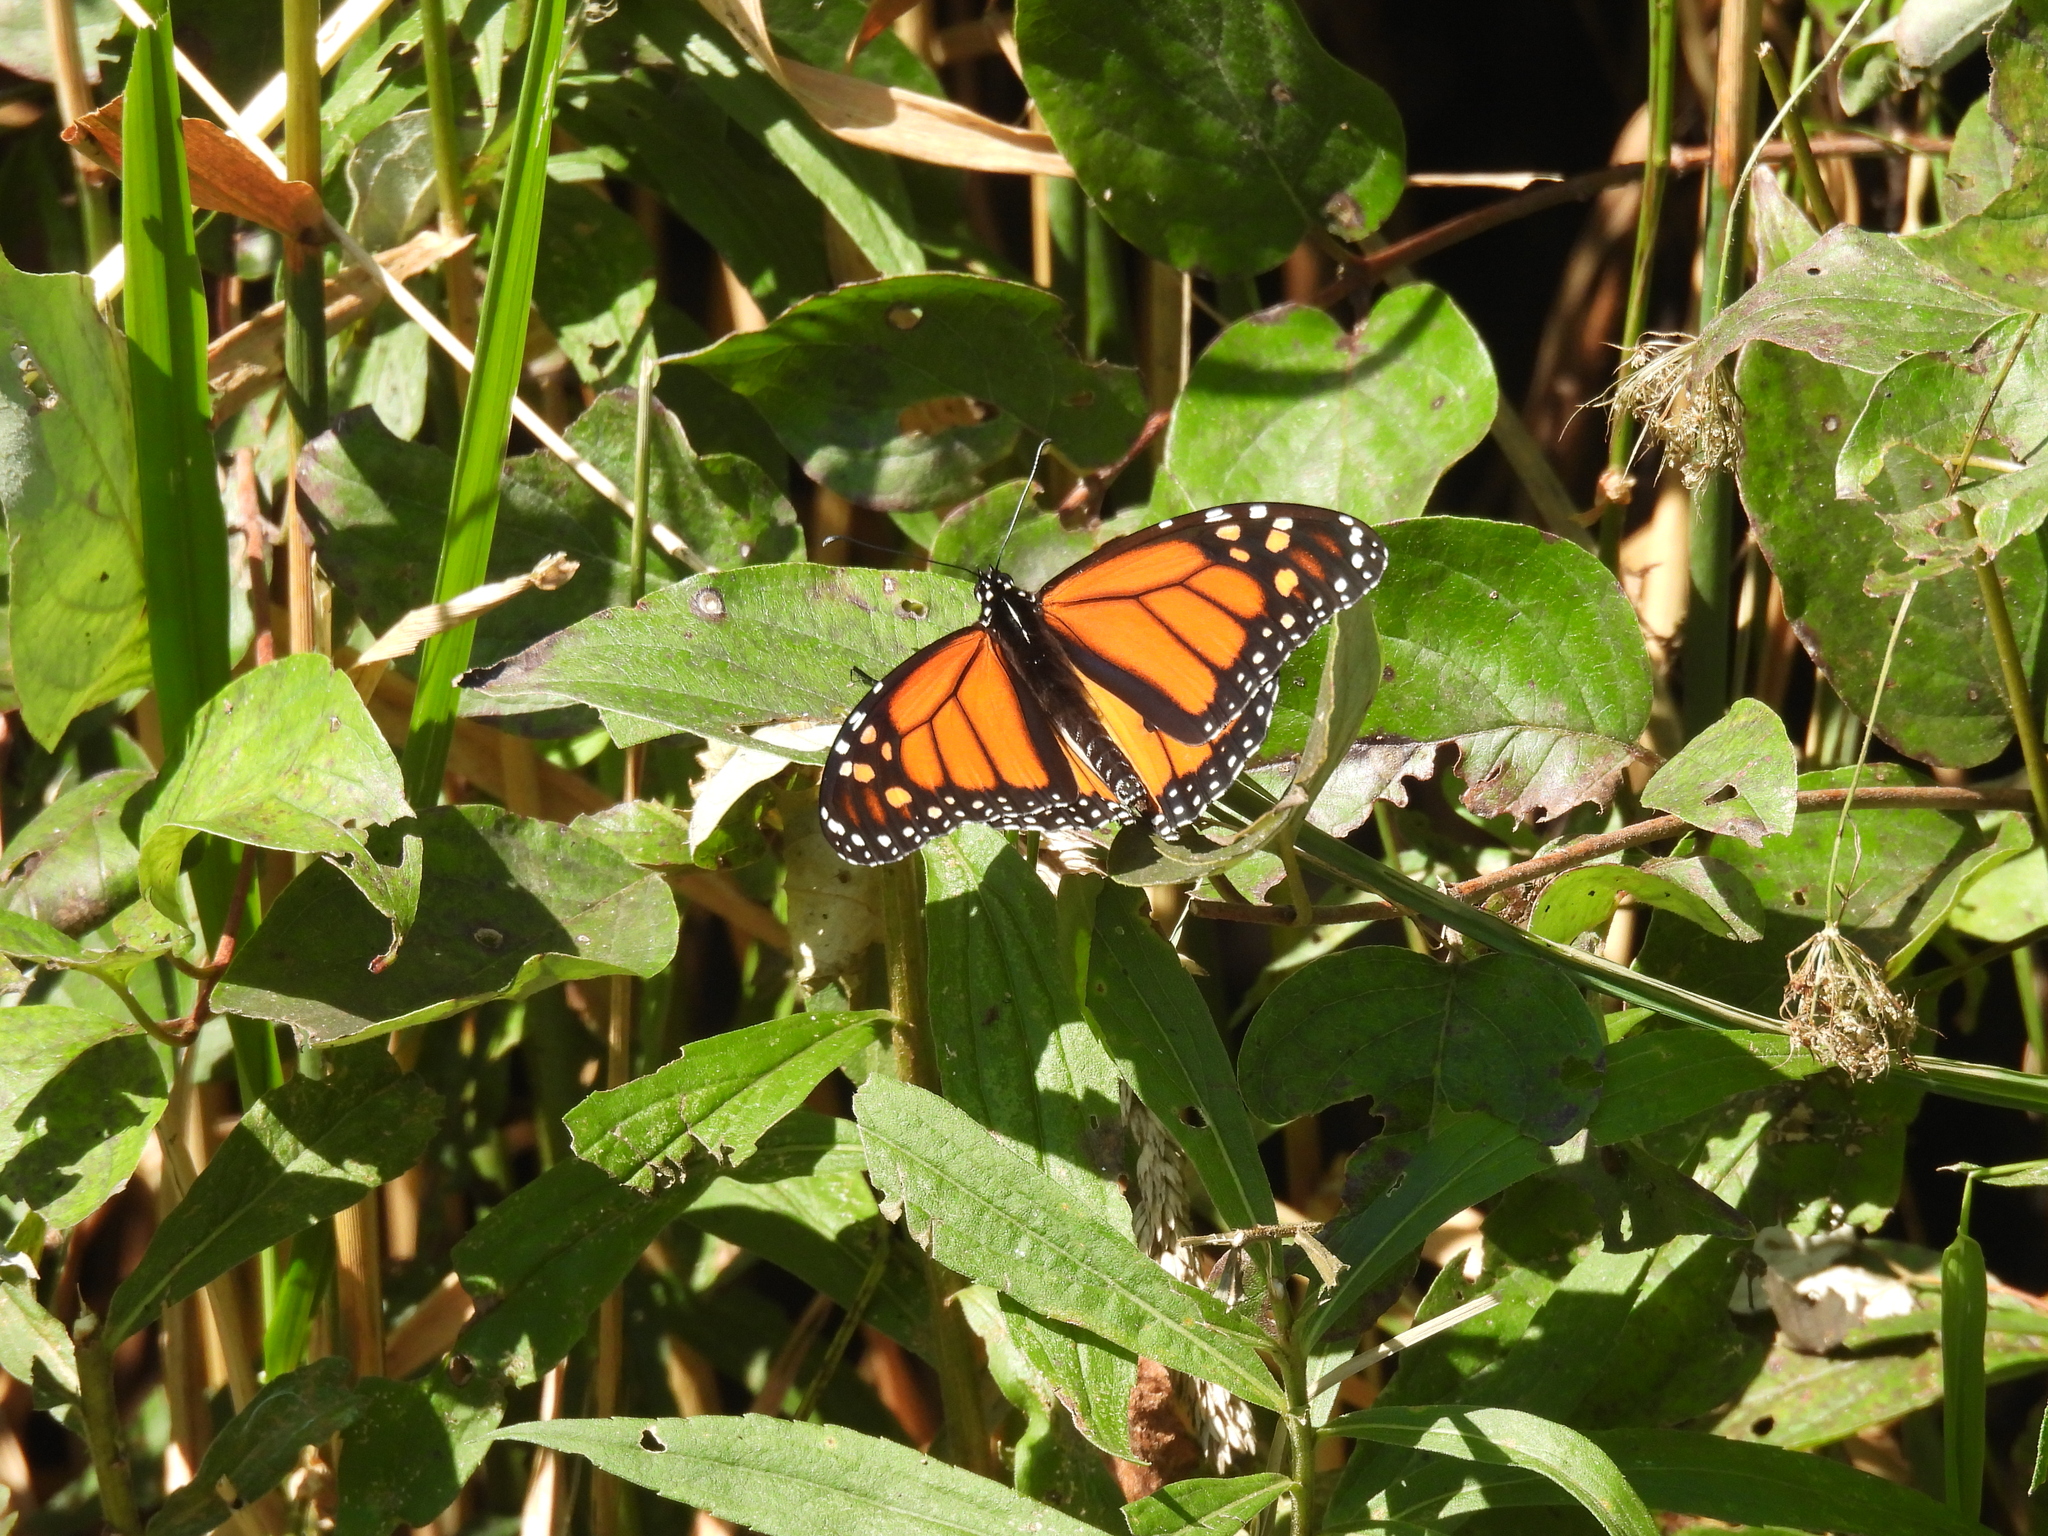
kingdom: Animalia
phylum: Arthropoda
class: Insecta
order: Lepidoptera
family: Nymphalidae
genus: Danaus
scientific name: Danaus plexippus
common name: Monarch
